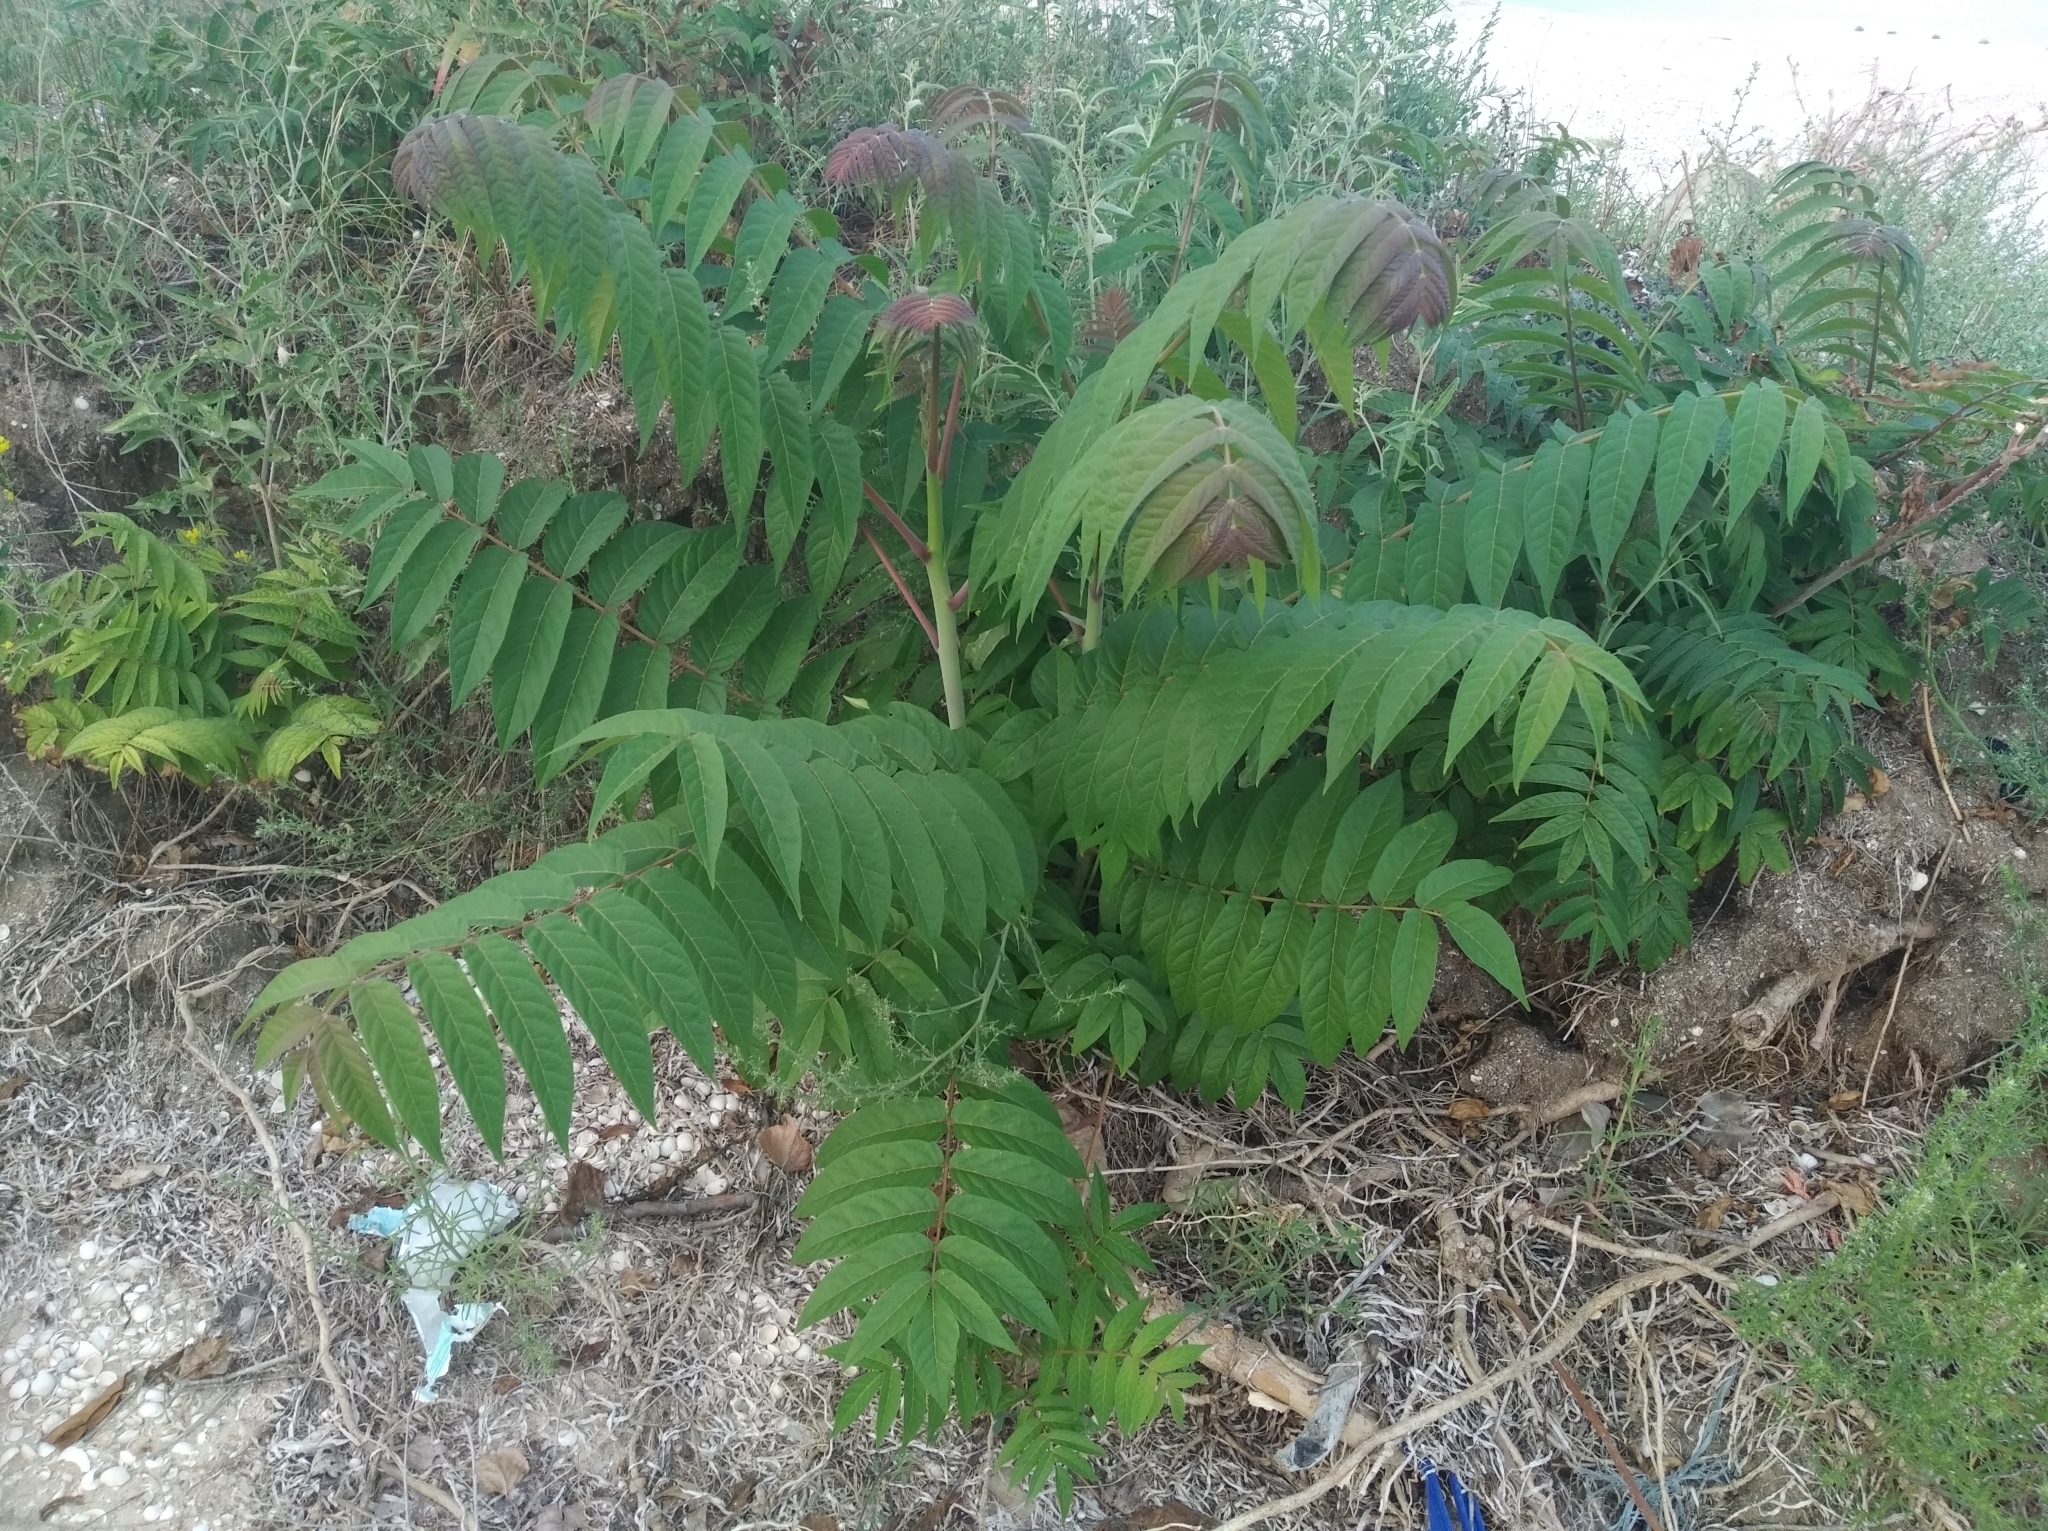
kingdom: Plantae
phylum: Tracheophyta
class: Magnoliopsida
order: Sapindales
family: Simaroubaceae
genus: Ailanthus
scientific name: Ailanthus altissima
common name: Tree-of-heaven
